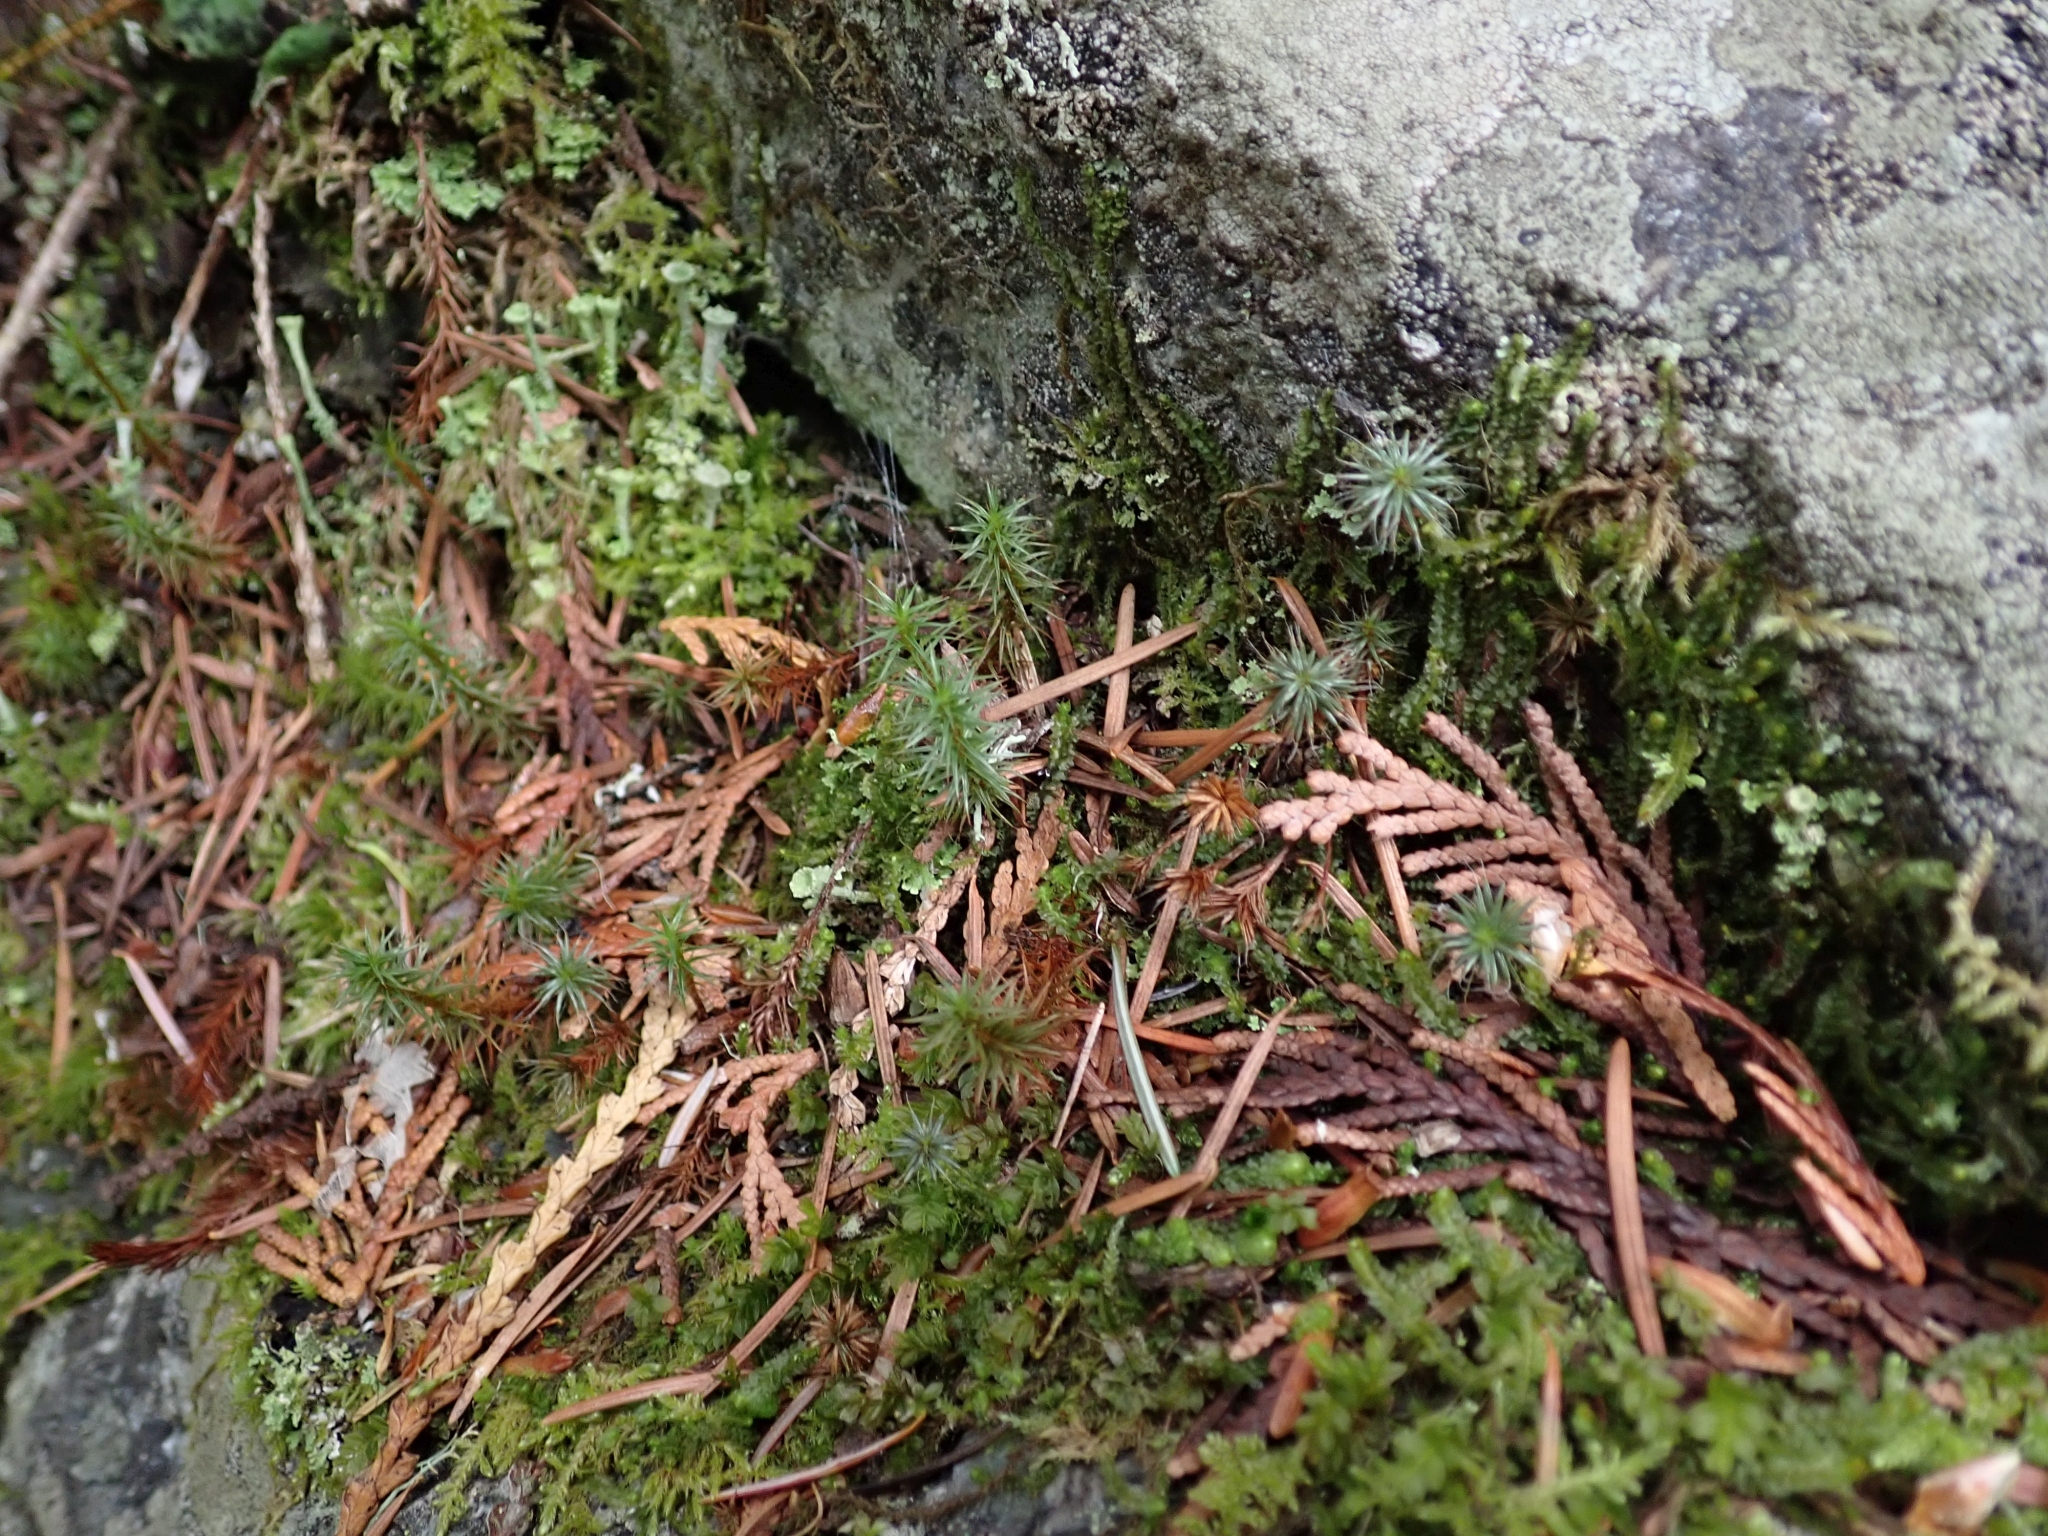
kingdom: Plantae
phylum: Bryophyta
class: Polytrichopsida
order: Polytrichales
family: Polytrichaceae
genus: Polytrichum
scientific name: Polytrichum juniperinum
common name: Juniper haircap moss
